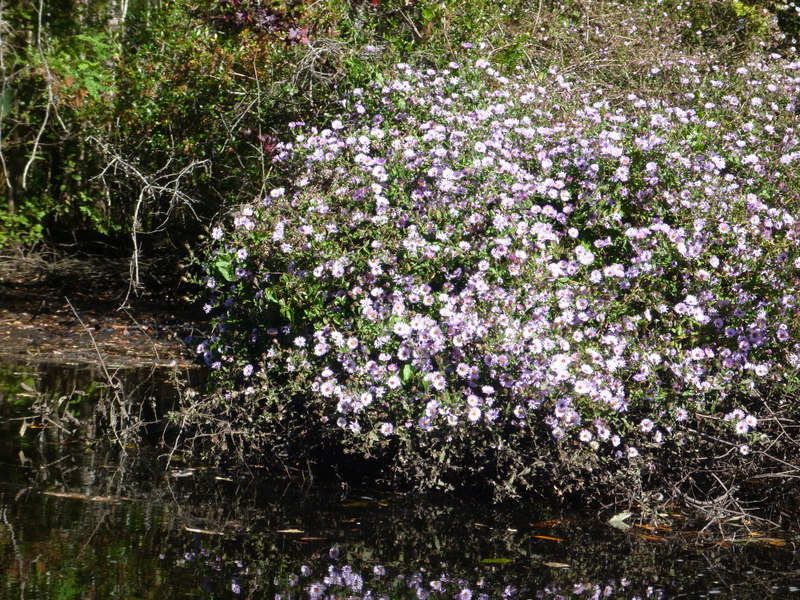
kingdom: Plantae
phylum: Tracheophyta
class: Magnoliopsida
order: Asterales
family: Asteraceae
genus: Ampelaster
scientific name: Ampelaster carolinianus
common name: Climbing aster
